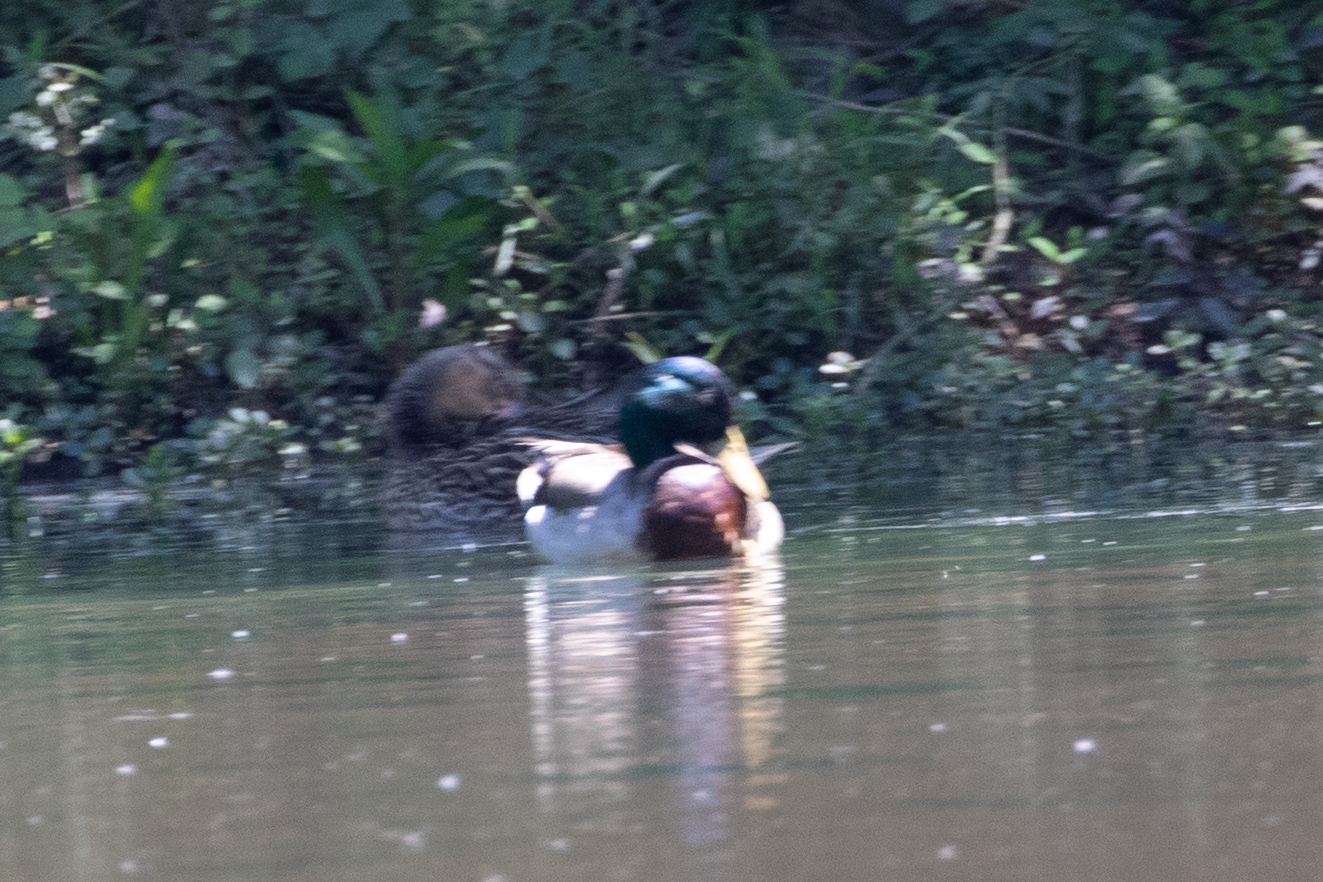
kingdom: Animalia
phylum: Chordata
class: Aves
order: Anseriformes
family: Anatidae
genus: Anas
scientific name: Anas platyrhynchos
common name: Mallard
